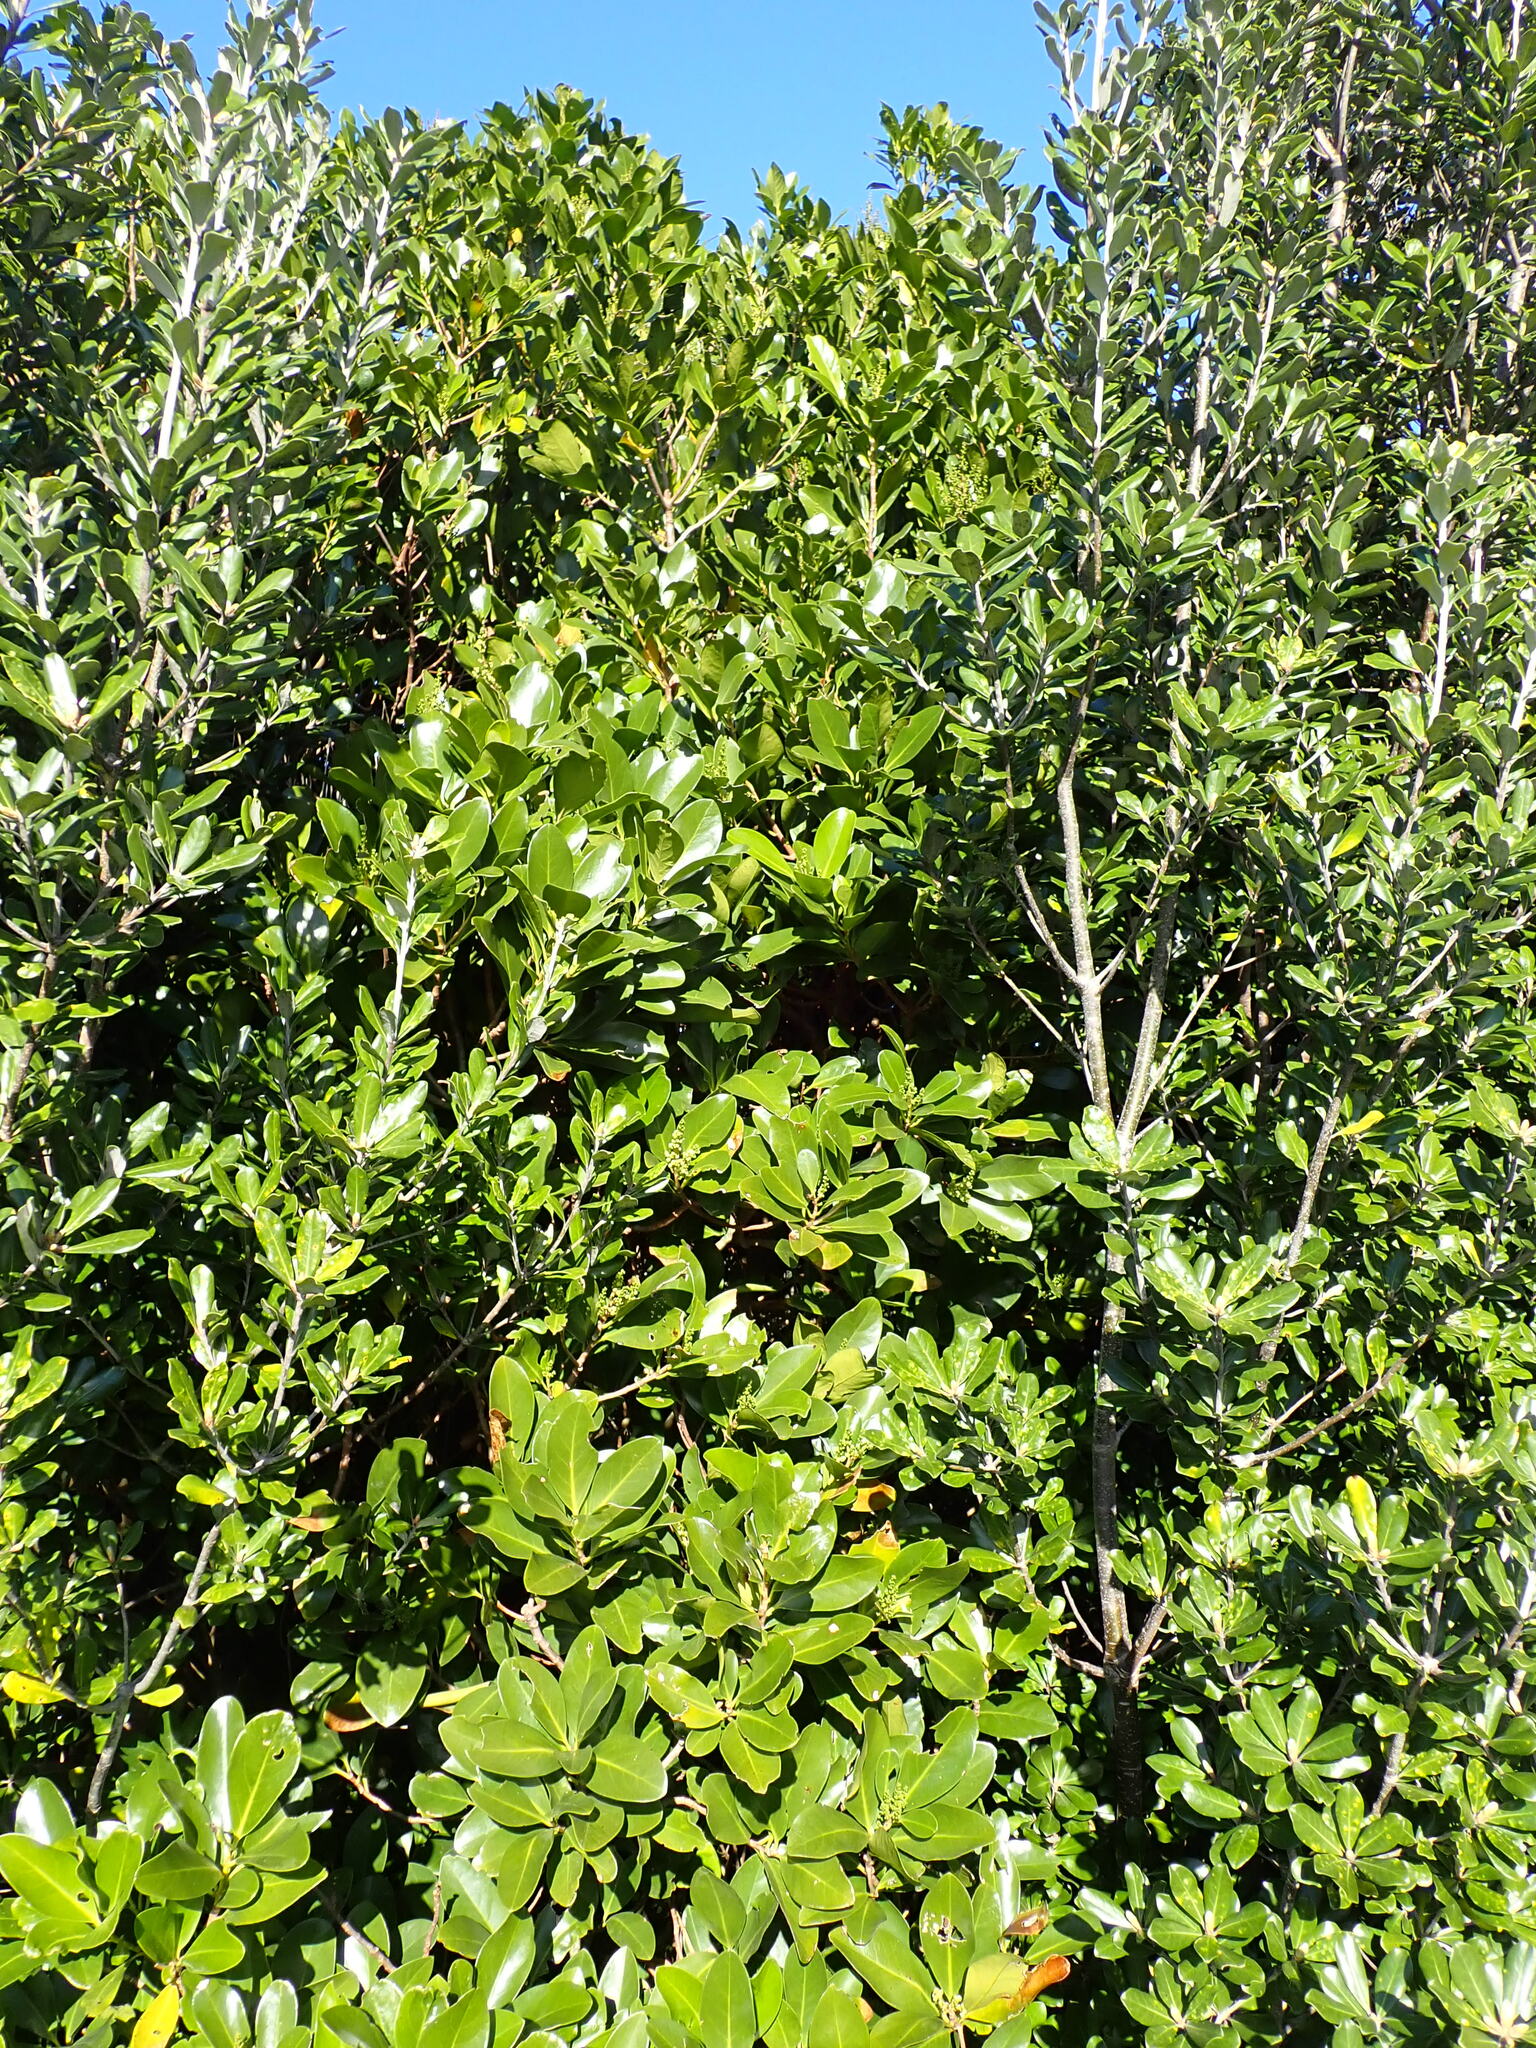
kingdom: Plantae
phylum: Tracheophyta
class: Magnoliopsida
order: Cucurbitales
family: Corynocarpaceae
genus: Corynocarpus
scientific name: Corynocarpus laevigatus
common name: New zealand laurel
